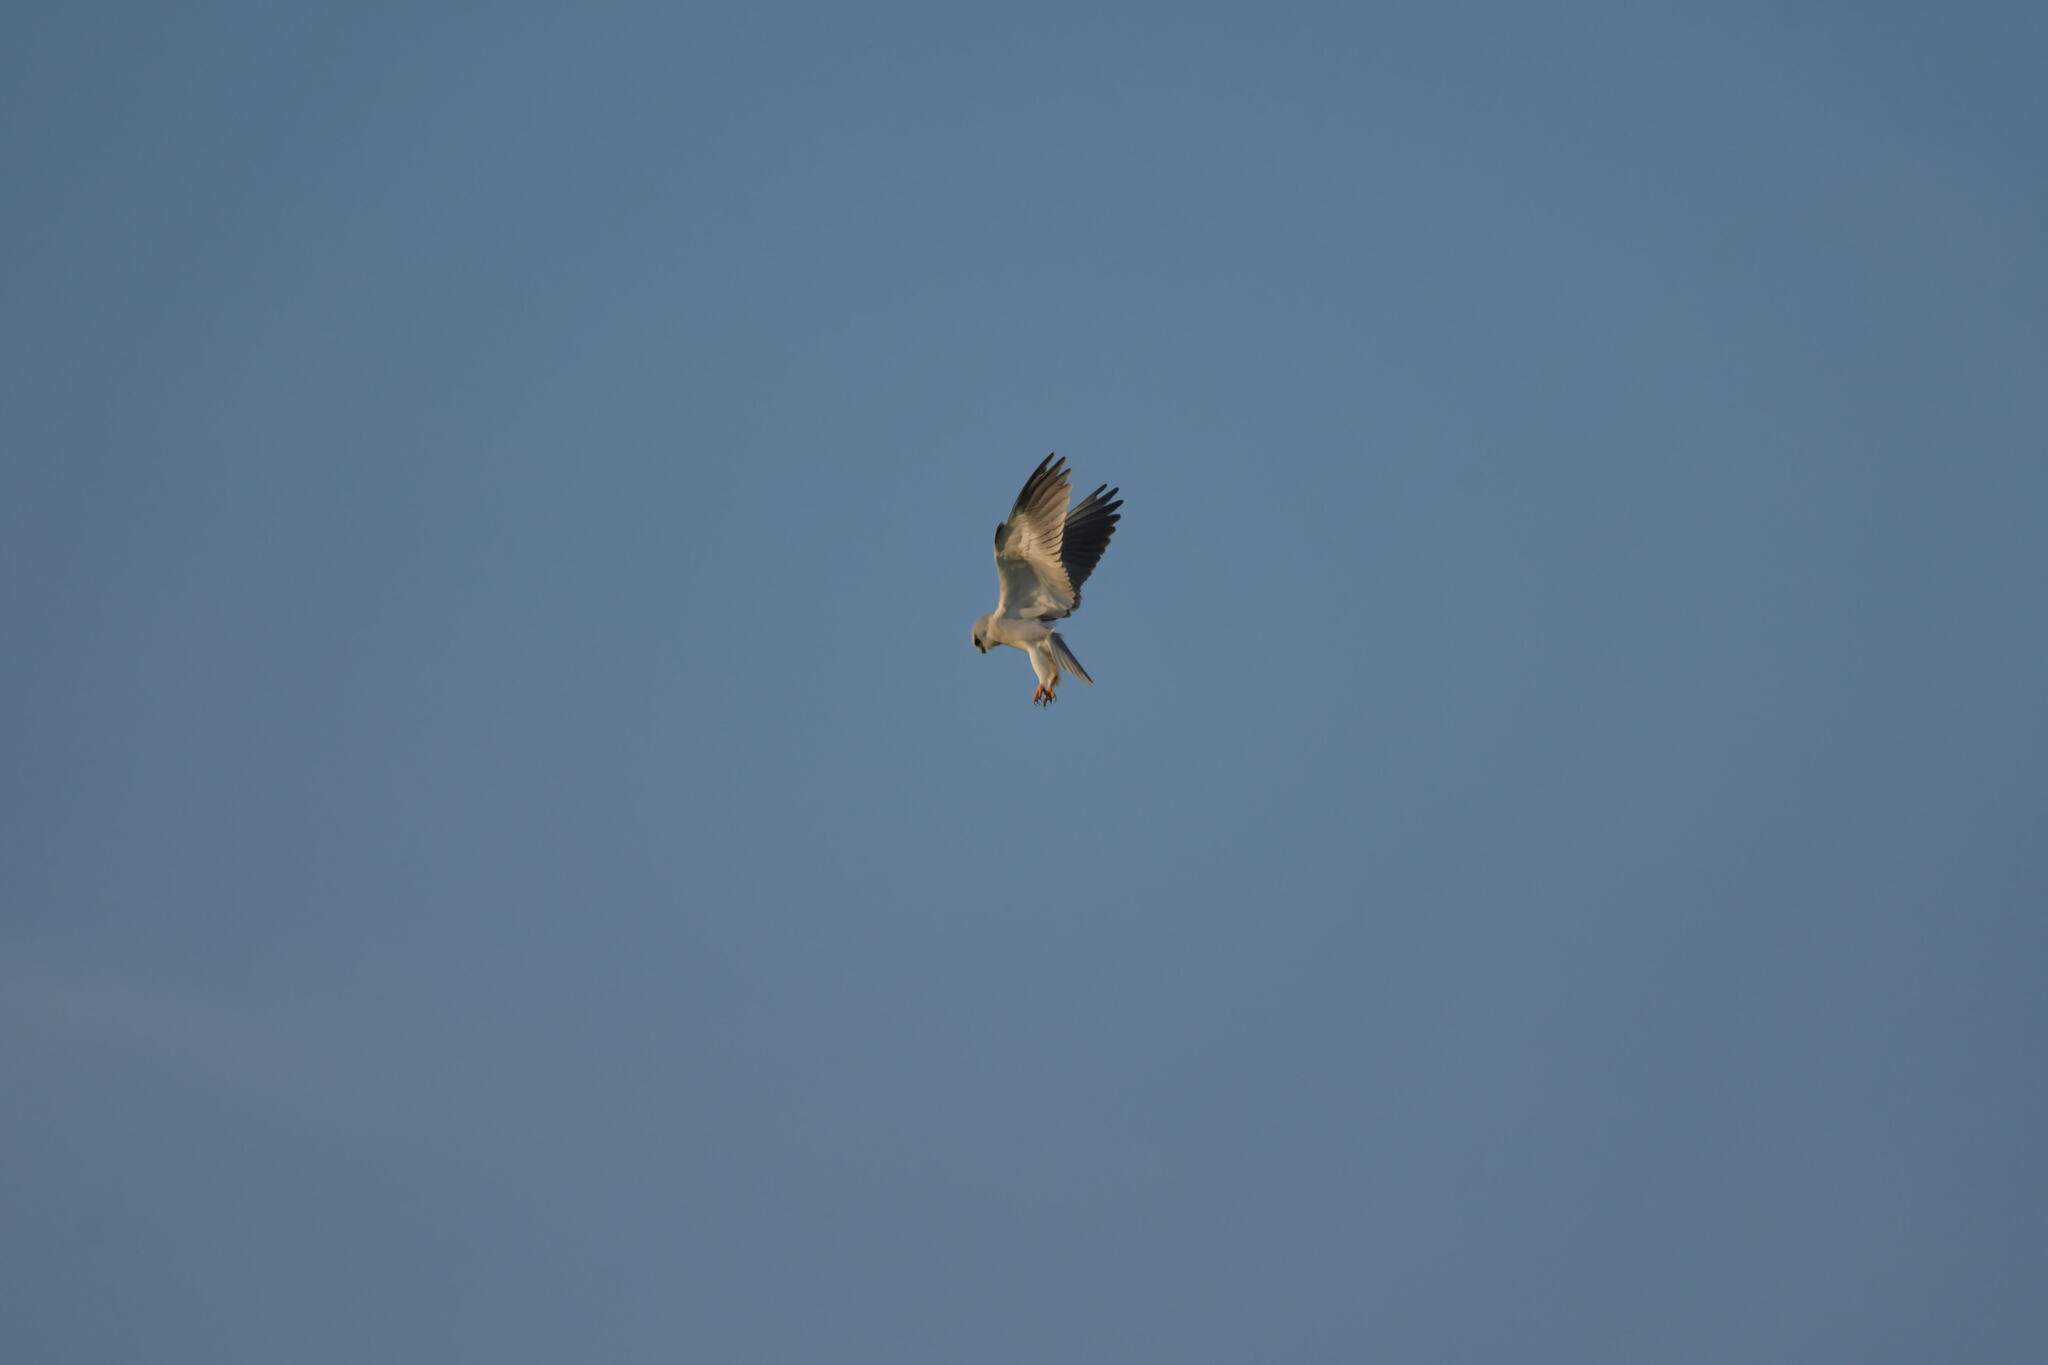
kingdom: Animalia
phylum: Chordata
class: Aves
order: Accipitriformes
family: Accipitridae
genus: Elanus
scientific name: Elanus caeruleus
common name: Black-winged kite
